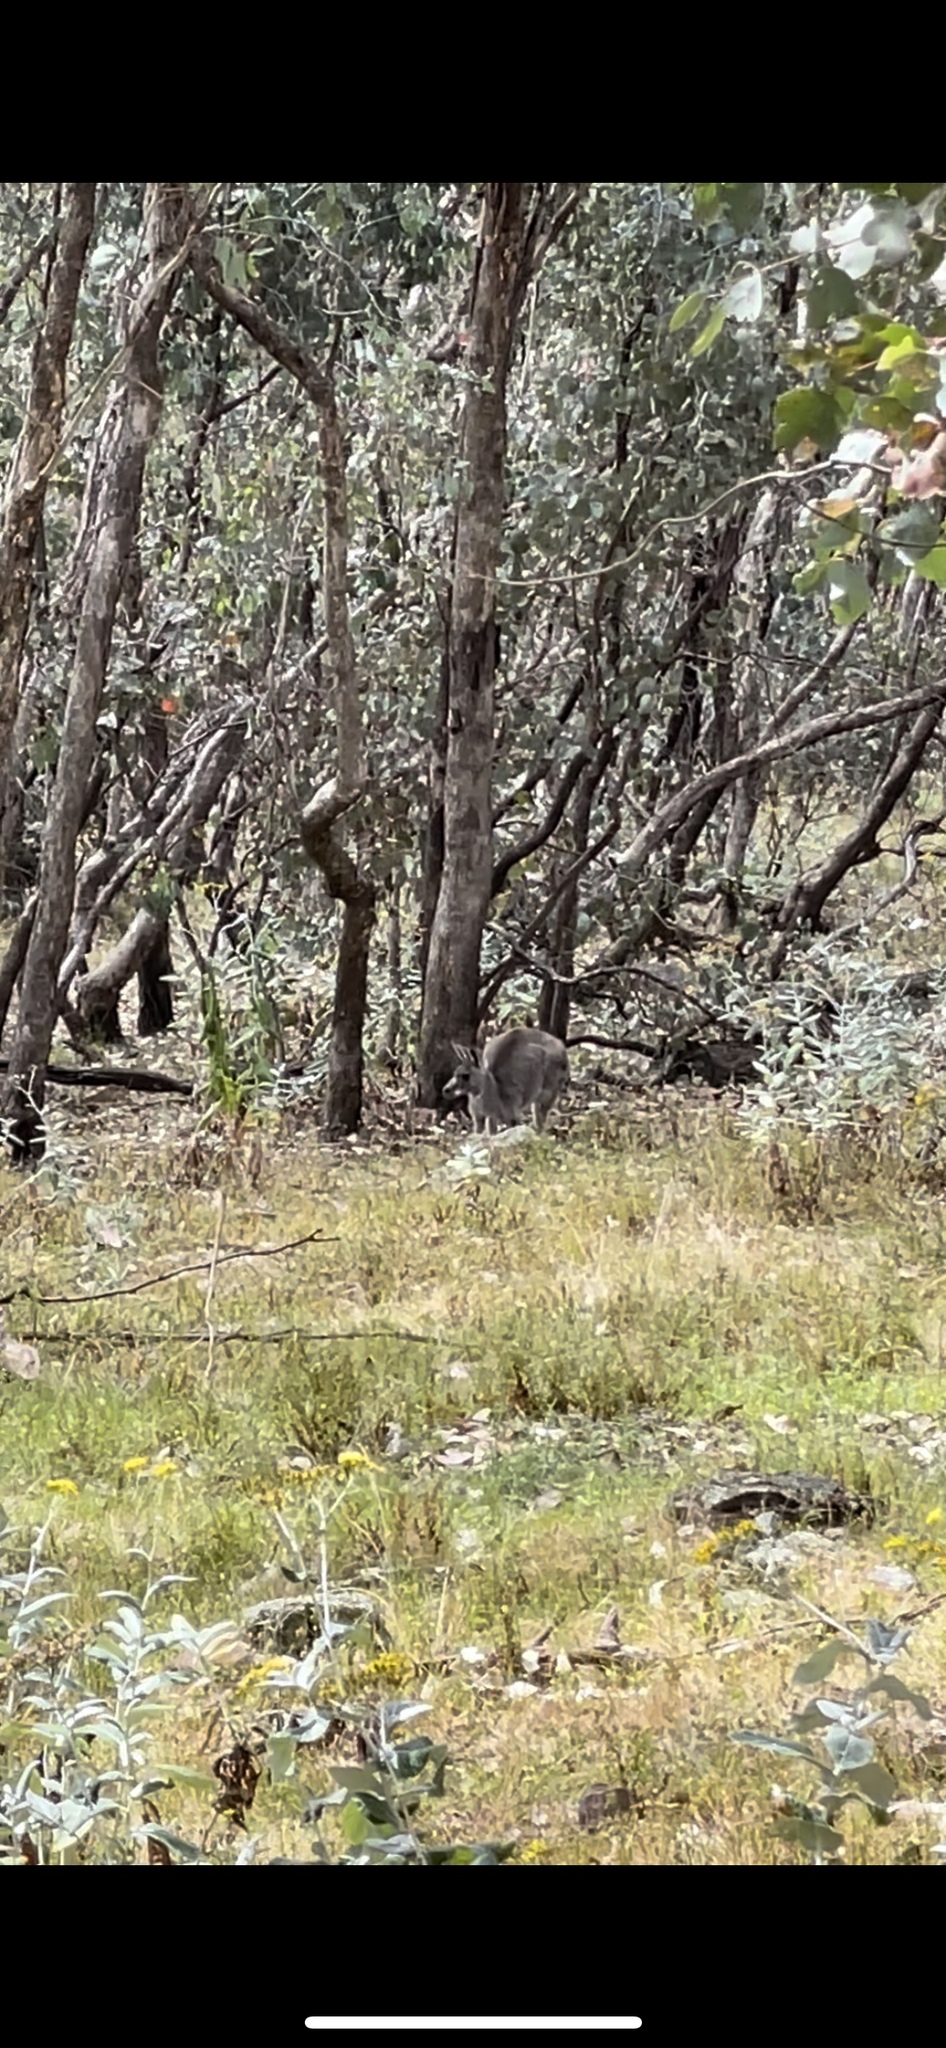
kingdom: Animalia
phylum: Chordata
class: Mammalia
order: Diprotodontia
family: Macropodidae
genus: Macropus
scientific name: Macropus giganteus
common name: Eastern grey kangaroo
